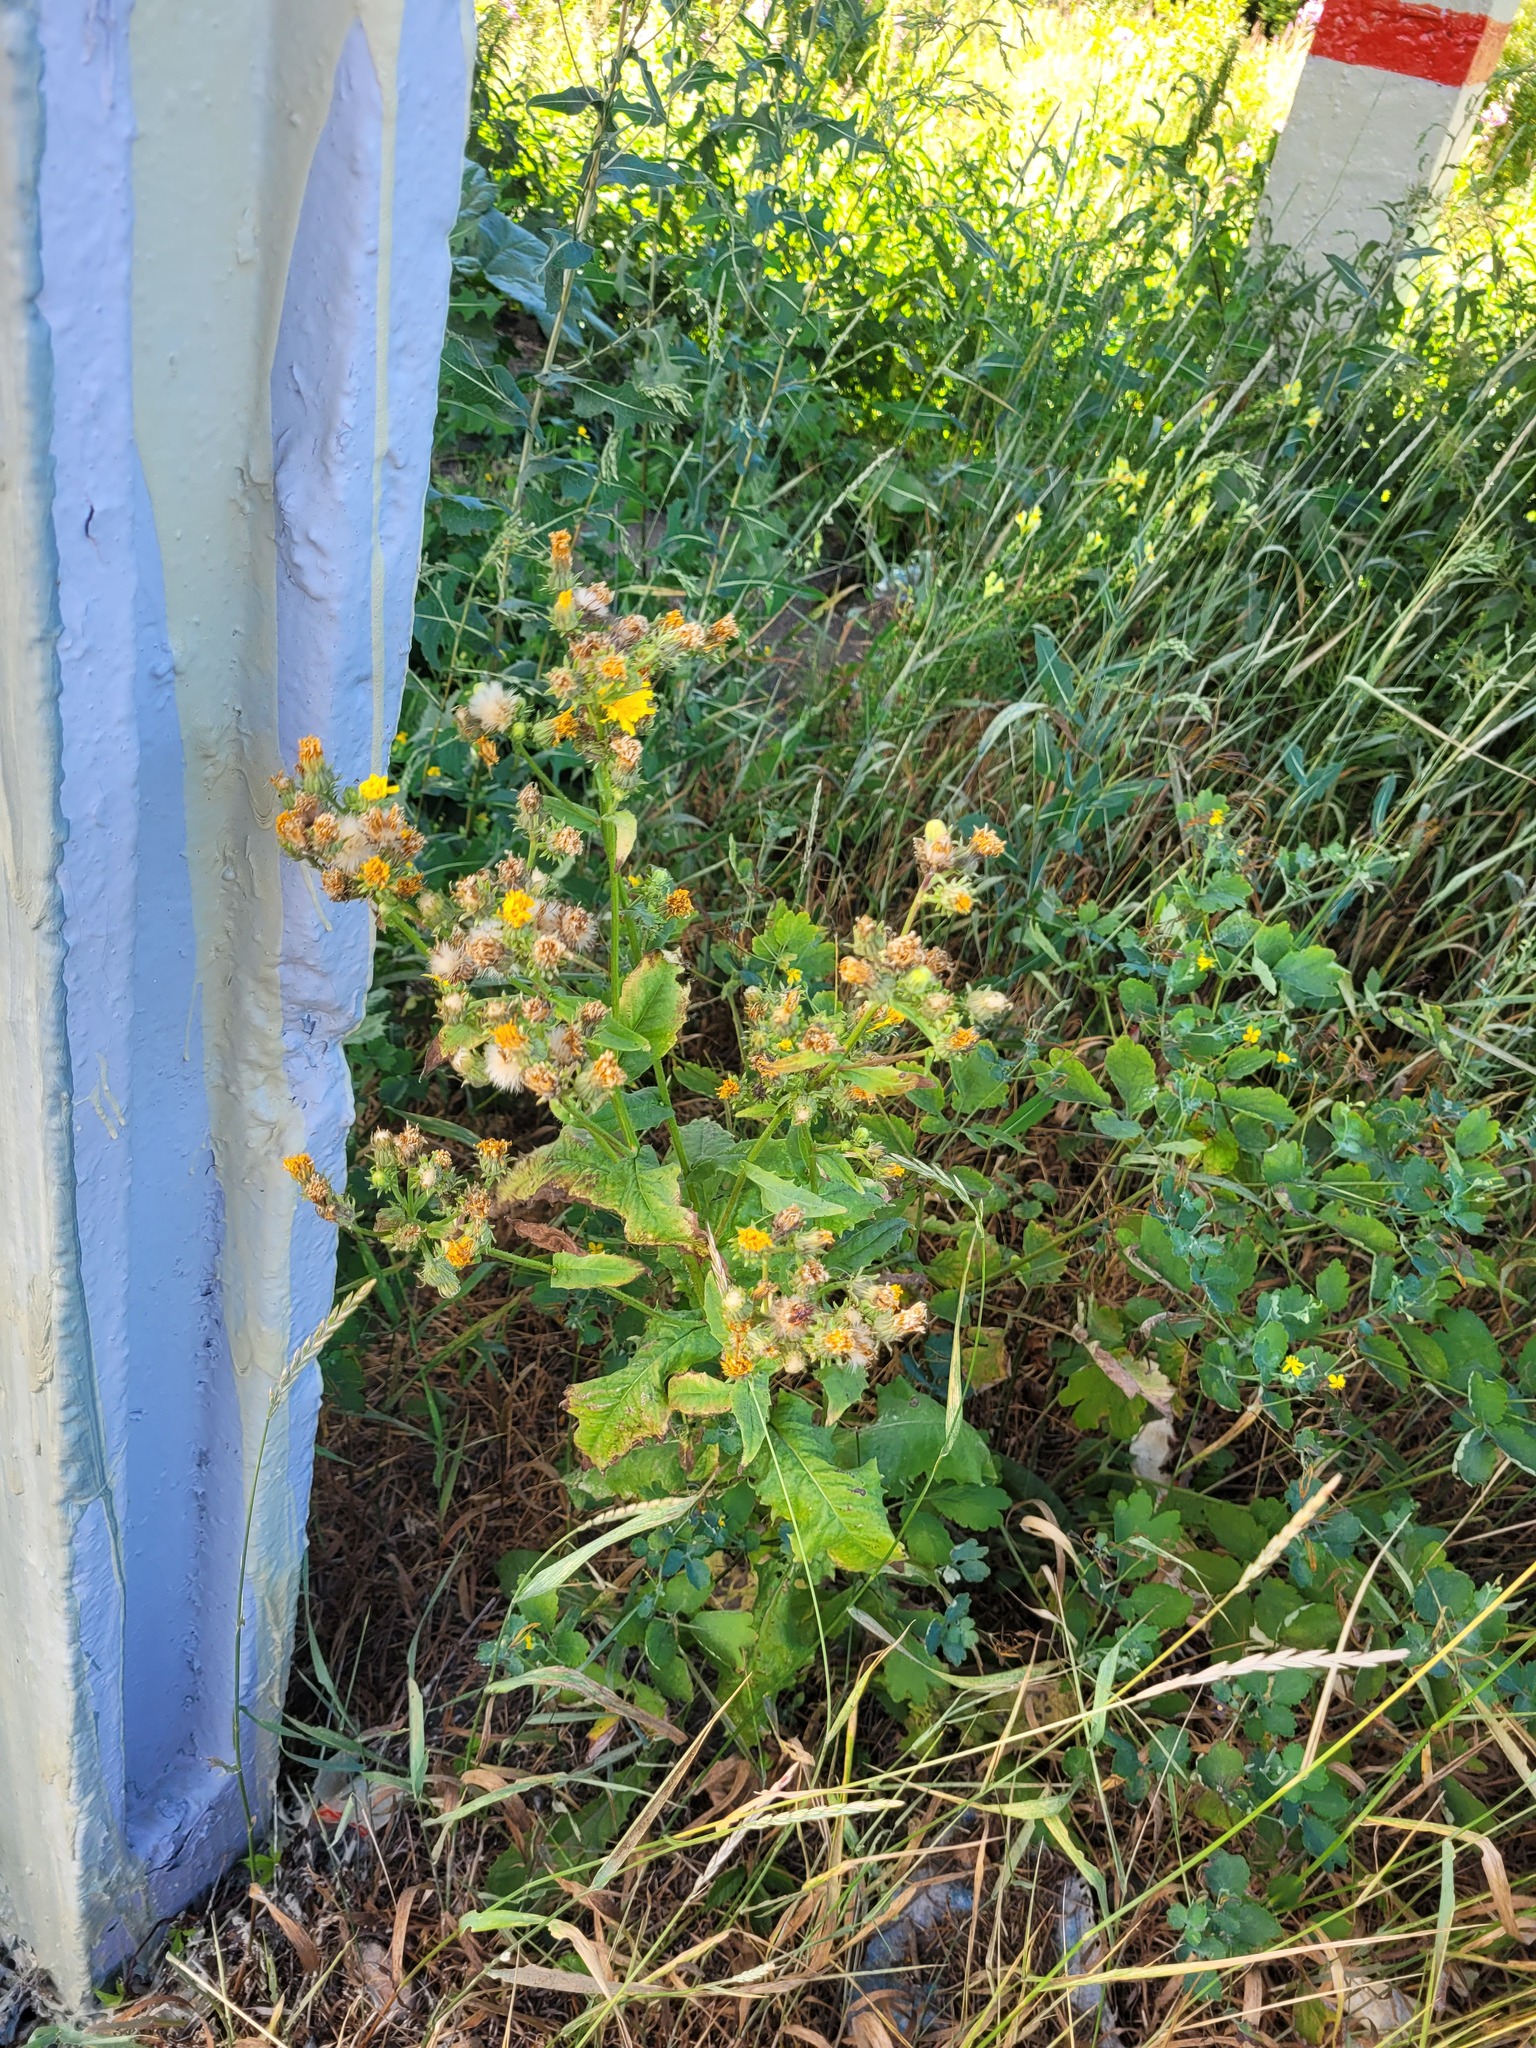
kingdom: Plantae
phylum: Tracheophyta
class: Magnoliopsida
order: Asterales
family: Asteraceae
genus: Picris
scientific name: Picris hieracioides
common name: Hawkweed oxtongue
